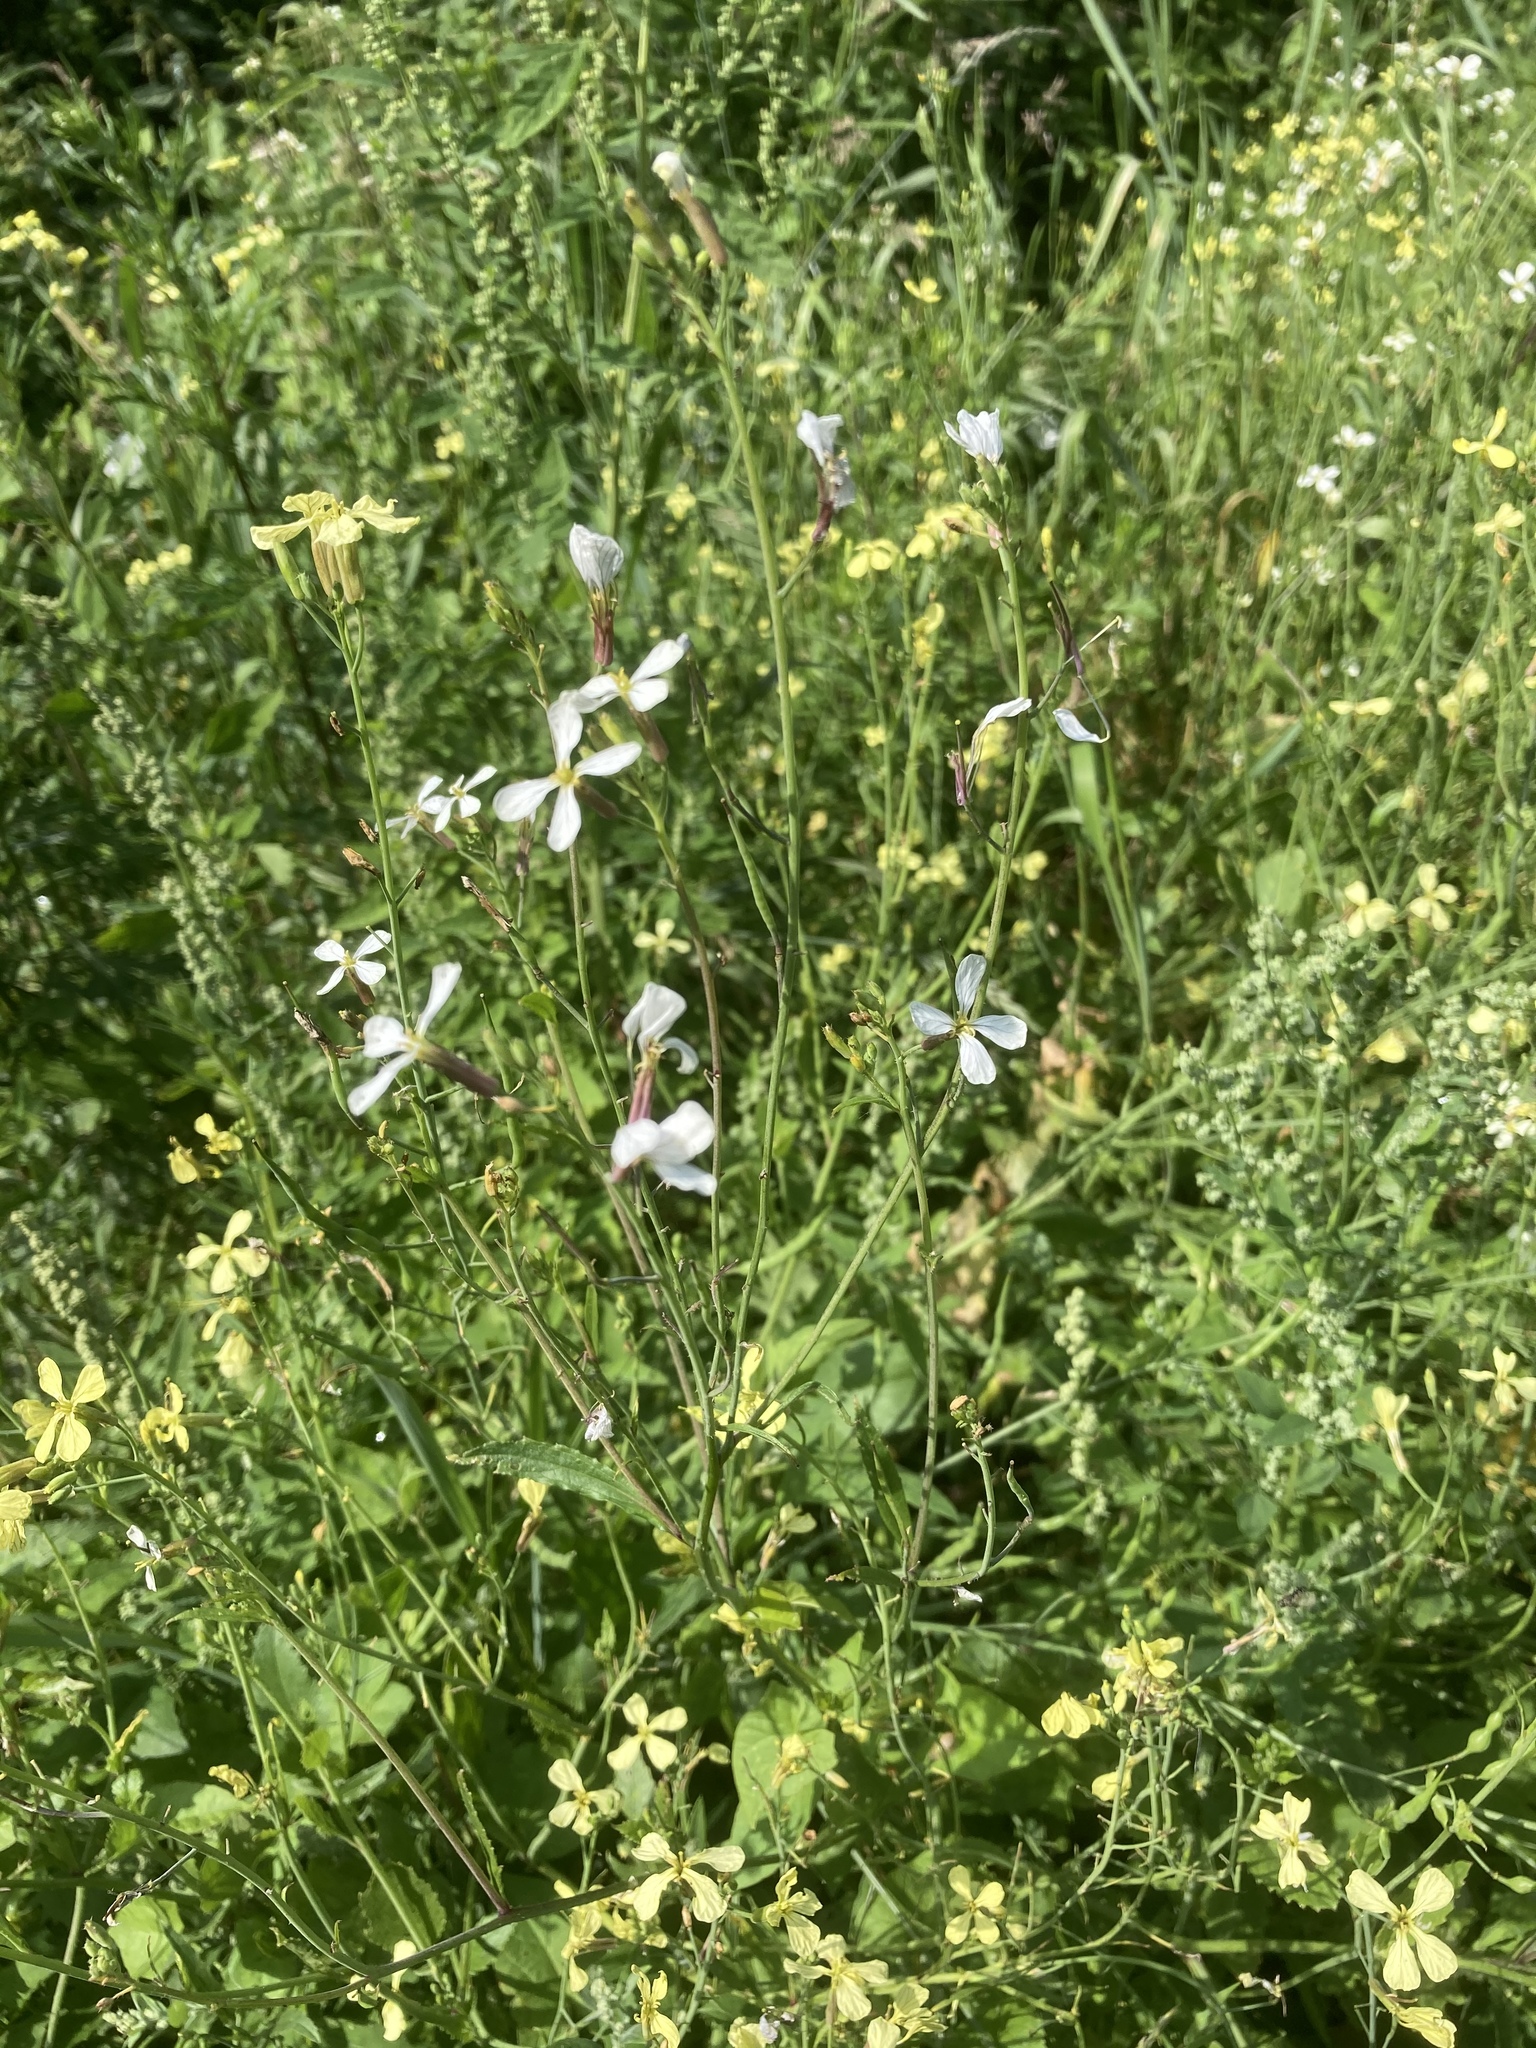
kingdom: Plantae
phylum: Tracheophyta
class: Magnoliopsida
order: Brassicales
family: Brassicaceae
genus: Raphanus
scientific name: Raphanus raphanistrum
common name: Wild radish
